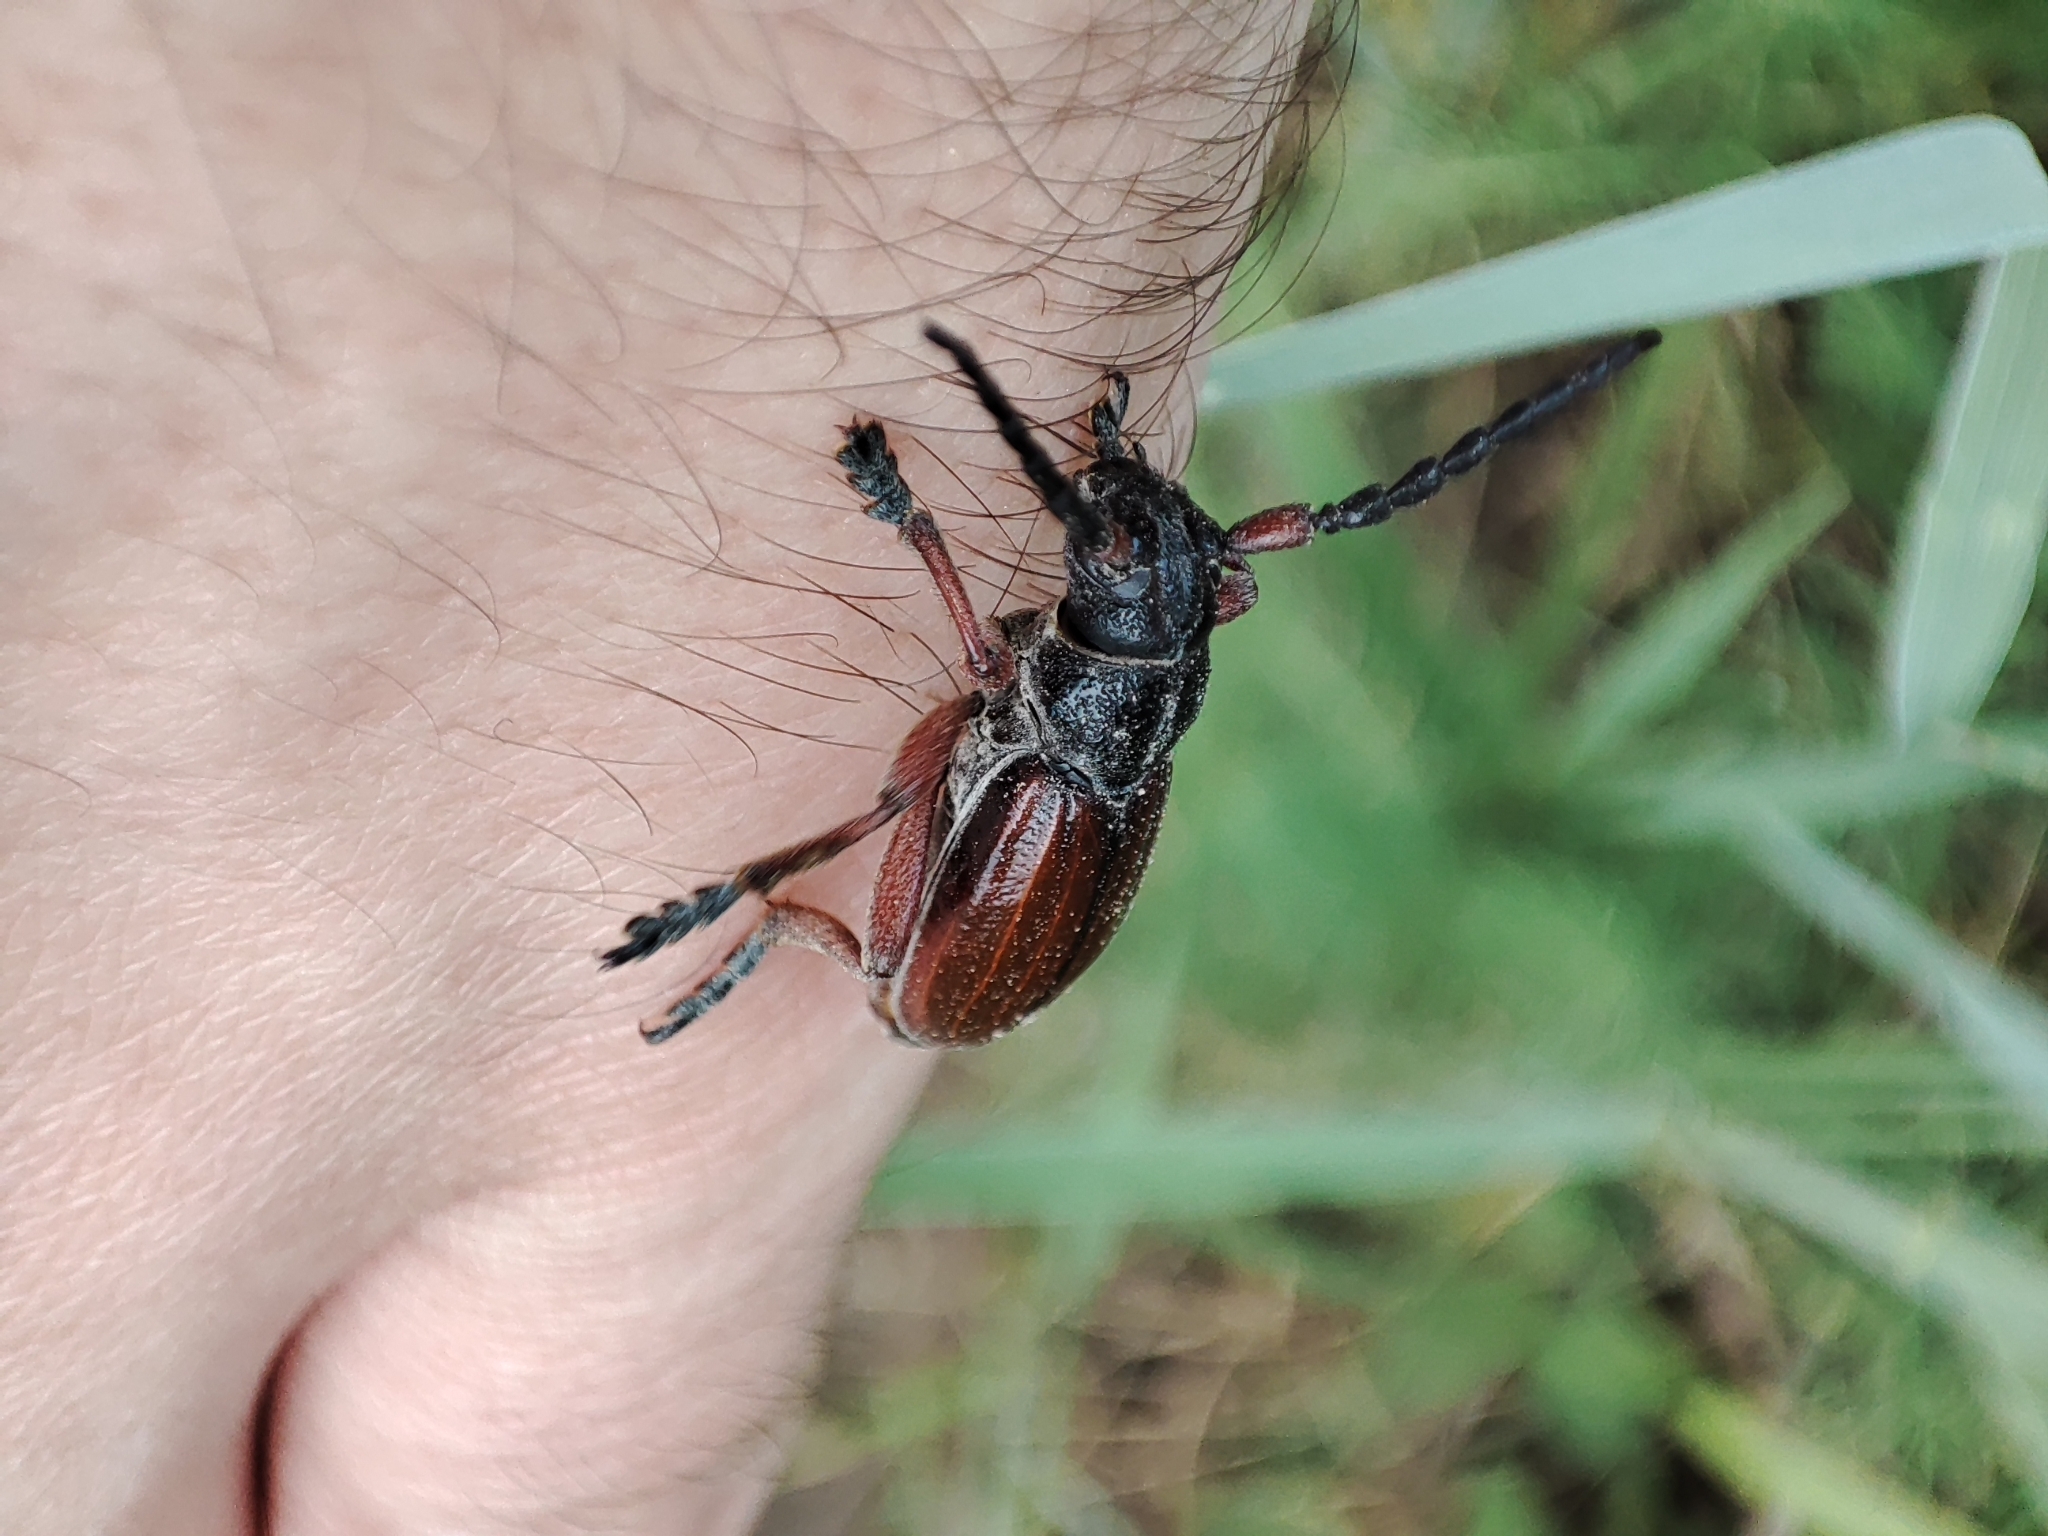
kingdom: Animalia
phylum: Arthropoda
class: Insecta
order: Coleoptera
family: Cerambycidae
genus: Dorcadion
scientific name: Dorcadion fulvum
